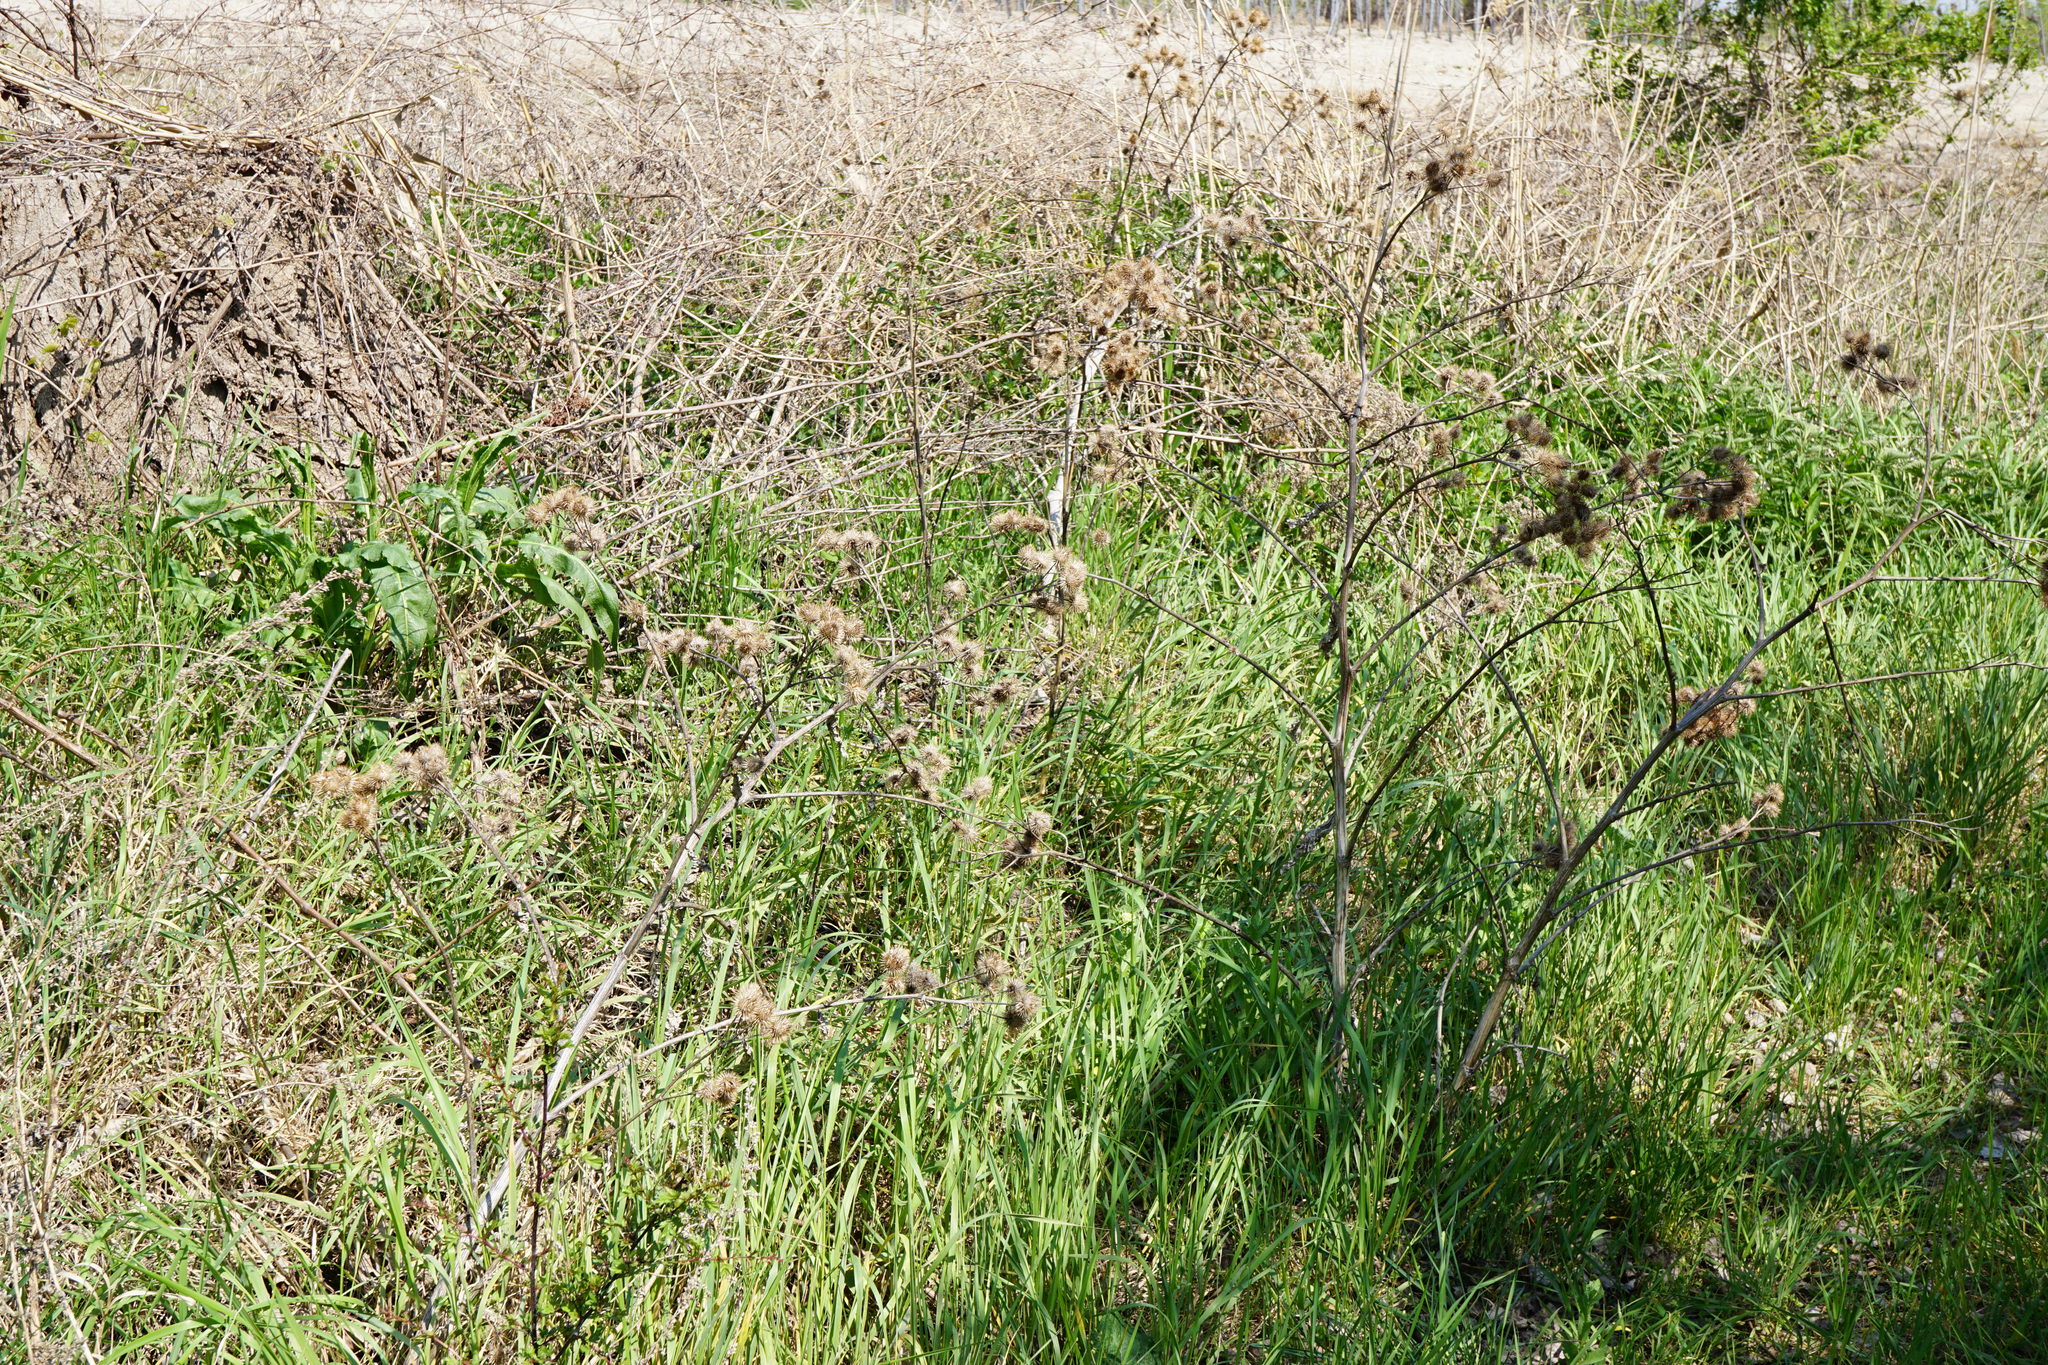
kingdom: Plantae
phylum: Tracheophyta
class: Magnoliopsida
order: Asterales
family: Asteraceae
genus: Arctium
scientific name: Arctium lappa
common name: Greater burdock
